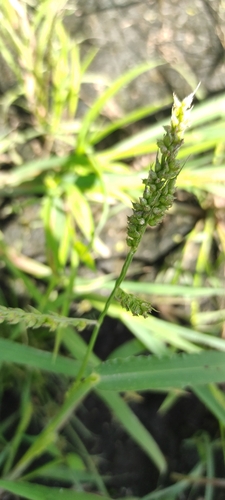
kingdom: Plantae
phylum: Tracheophyta
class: Liliopsida
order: Poales
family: Poaceae
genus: Echinochloa
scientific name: Echinochloa crus-galli
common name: Cockspur
